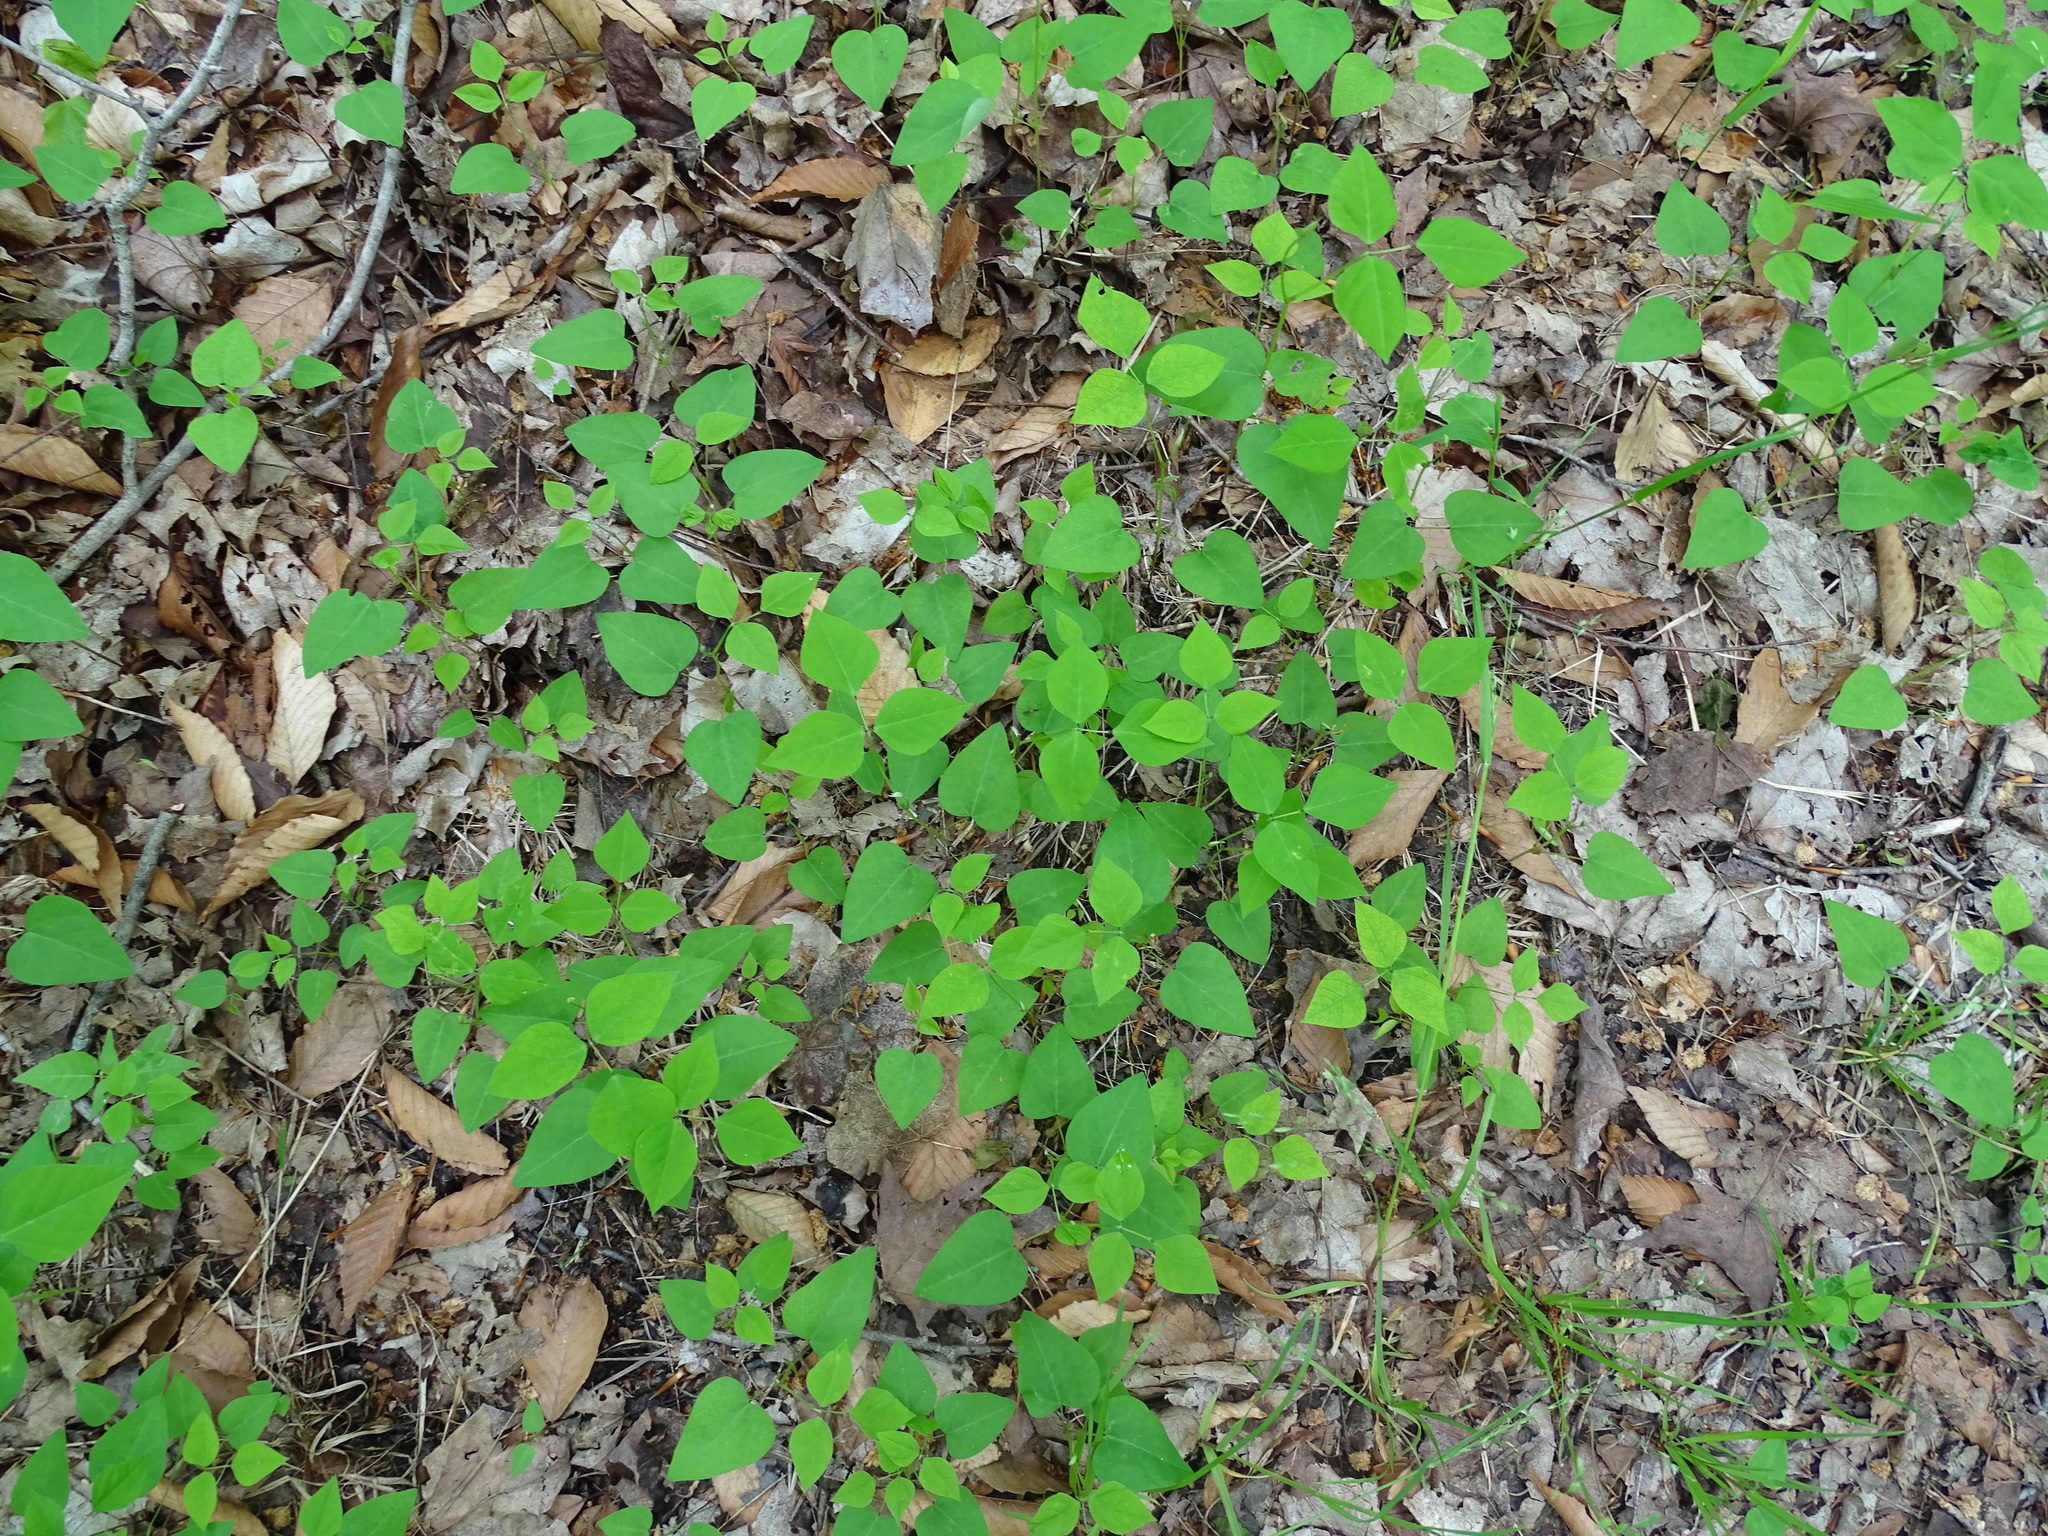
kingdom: Plantae
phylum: Tracheophyta
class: Magnoliopsida
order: Fabales
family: Fabaceae
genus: Amphicarpaea
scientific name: Amphicarpaea bracteata
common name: American hog peanut
